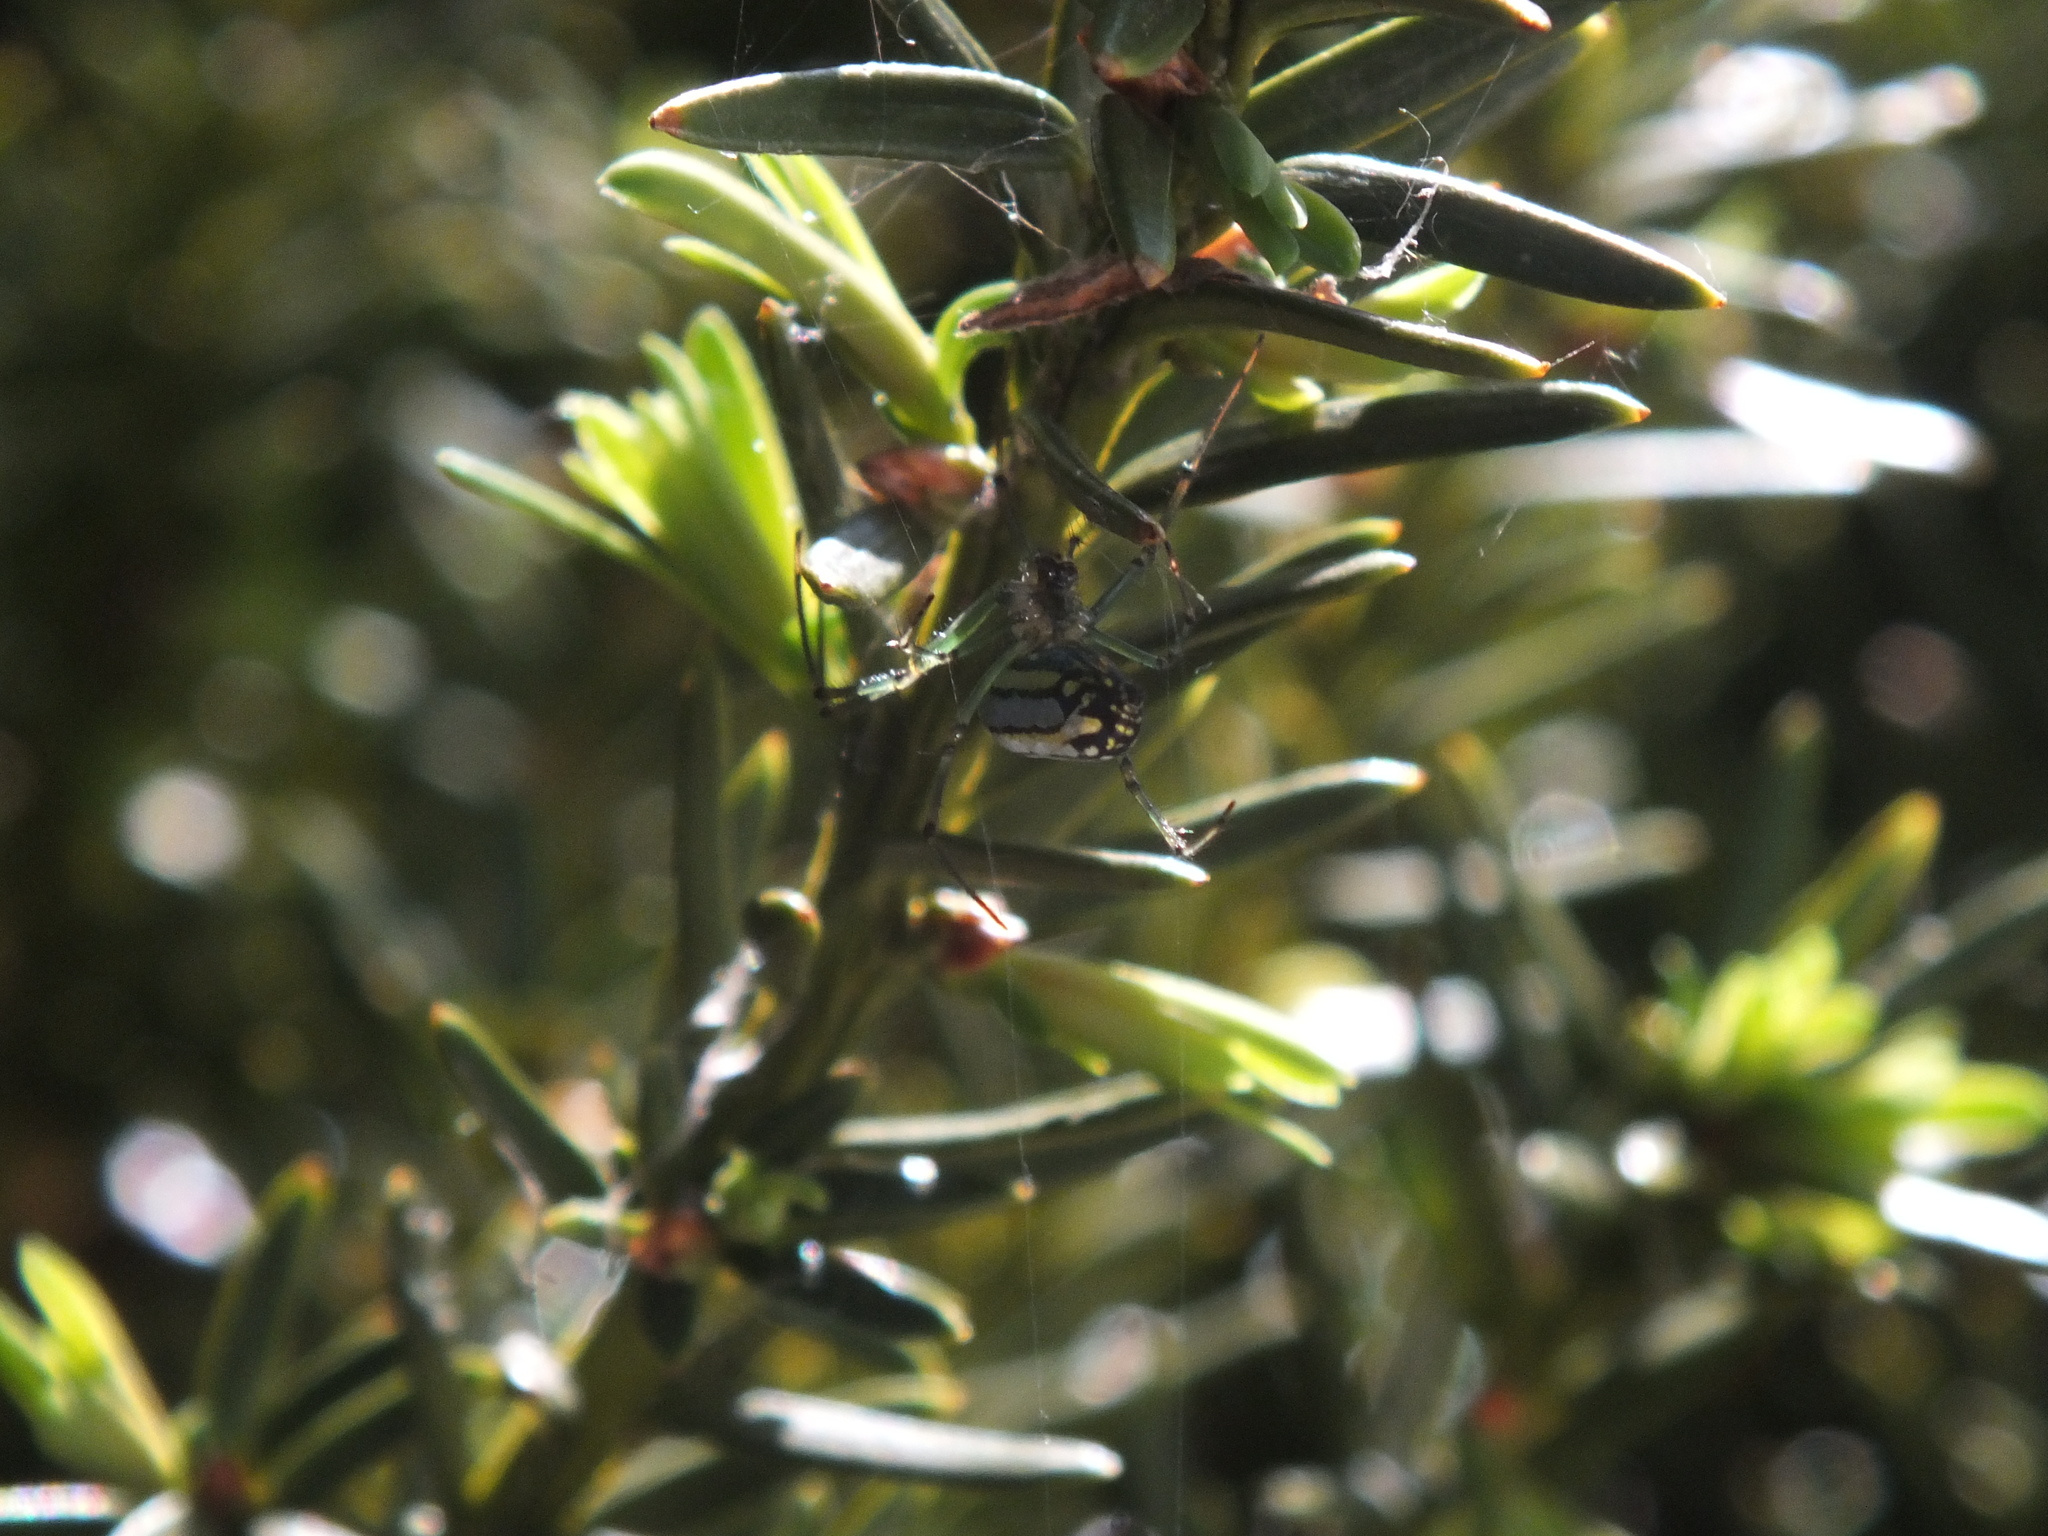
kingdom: Animalia
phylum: Arthropoda
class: Arachnida
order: Araneae
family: Tetragnathidae
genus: Leucauge
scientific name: Leucauge venusta
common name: Longjawed orb weavers
